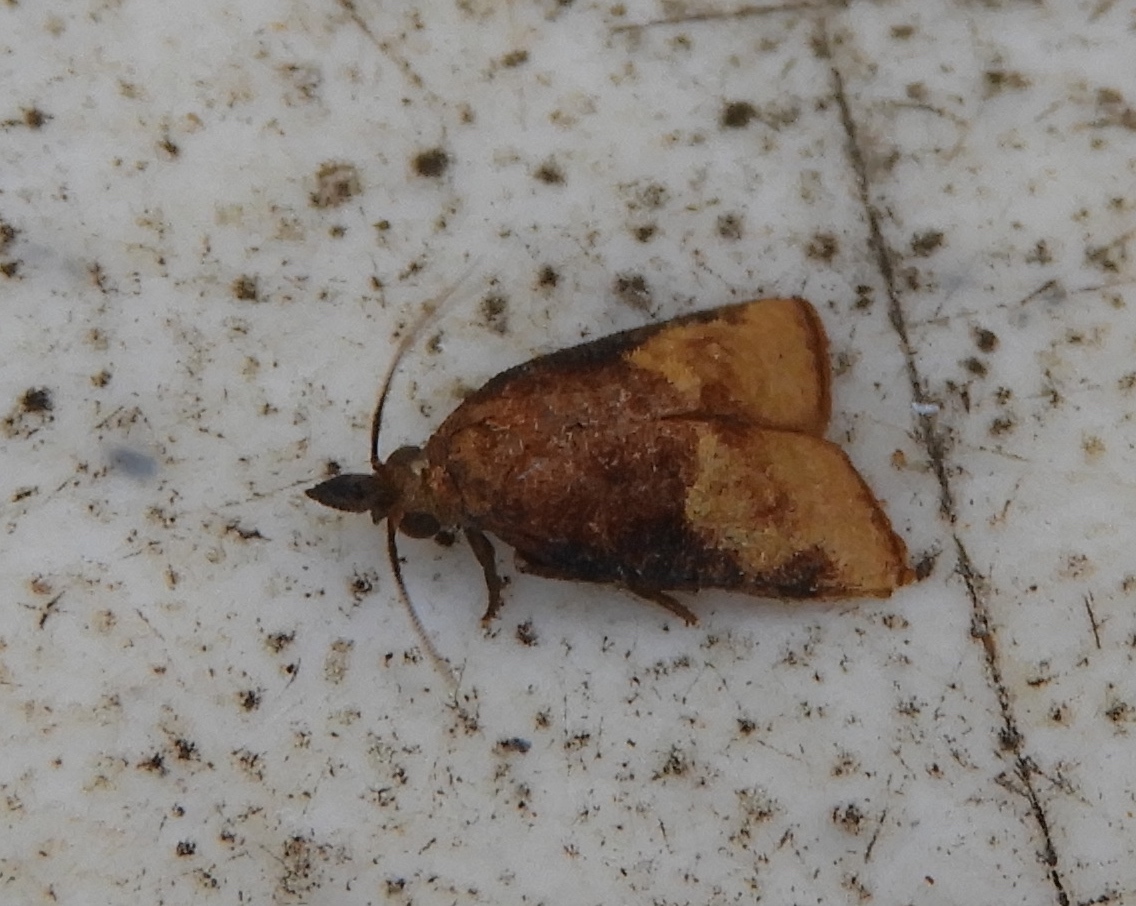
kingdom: Animalia
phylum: Arthropoda
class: Insecta
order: Lepidoptera
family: Tortricidae
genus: Platynota
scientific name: Platynota
